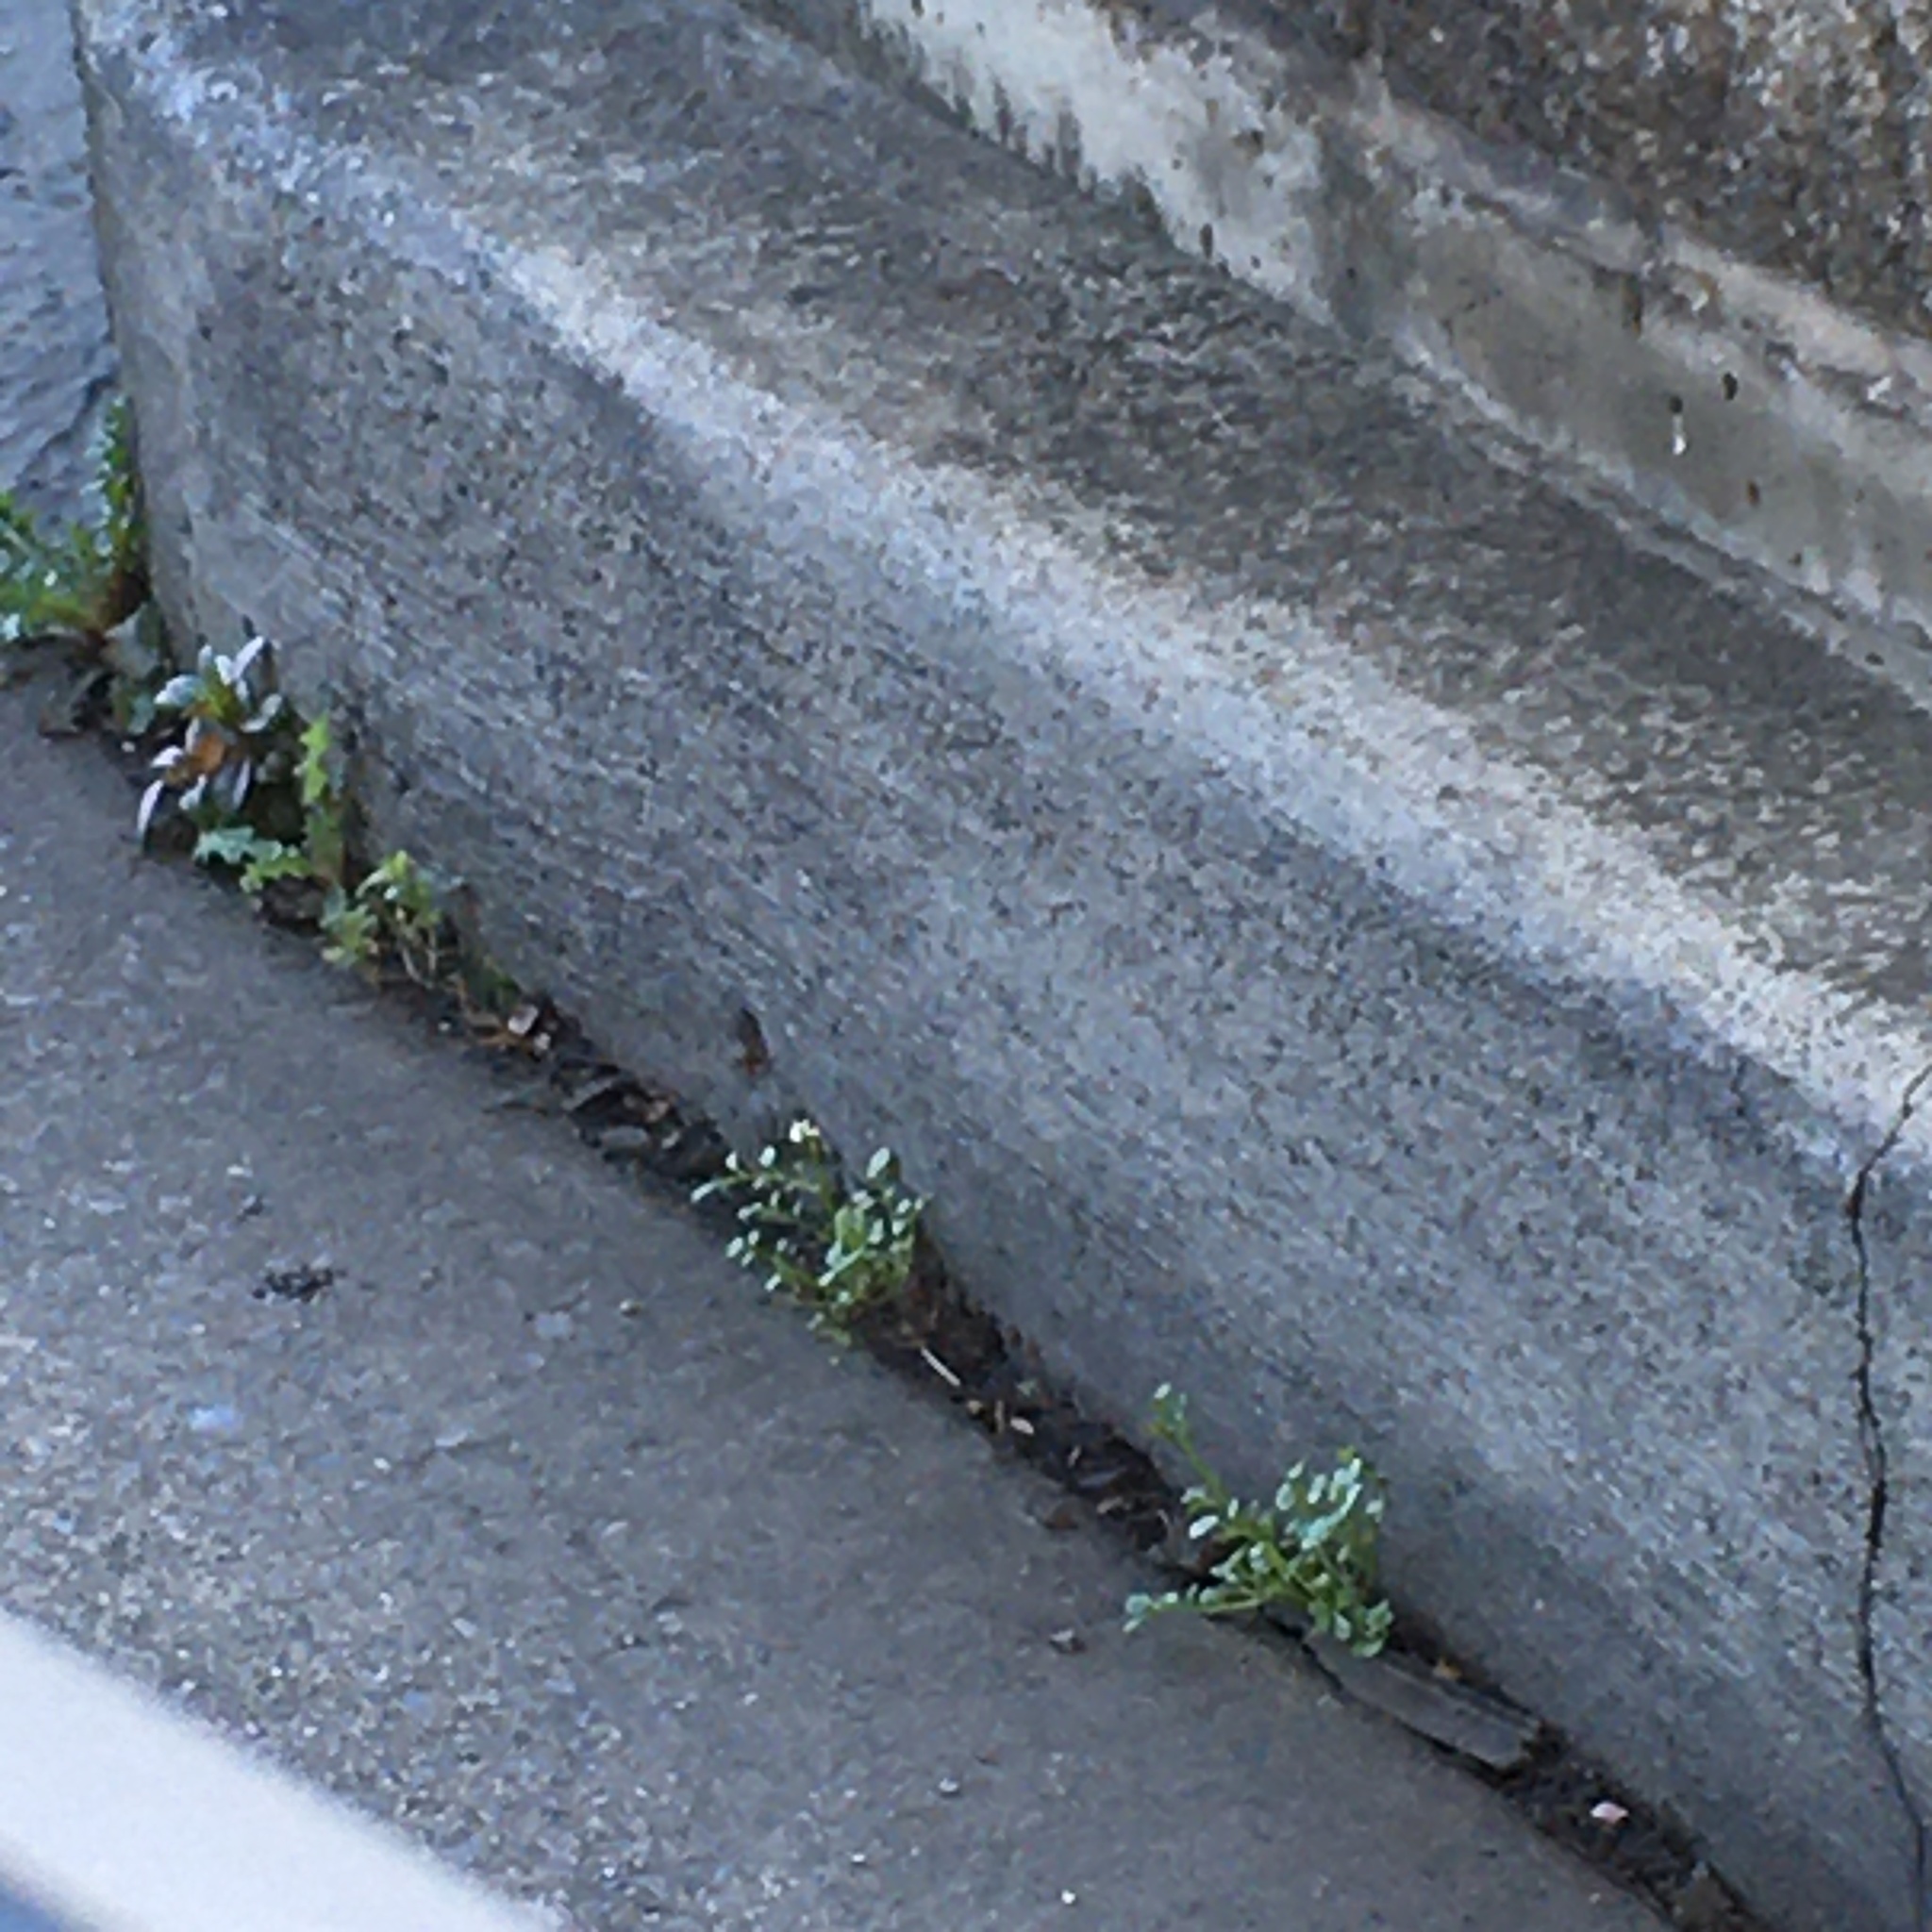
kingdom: Plantae
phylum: Tracheophyta
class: Magnoliopsida
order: Brassicales
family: Brassicaceae
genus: Cardamine
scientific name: Cardamine hirsuta
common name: Hairy bittercress
